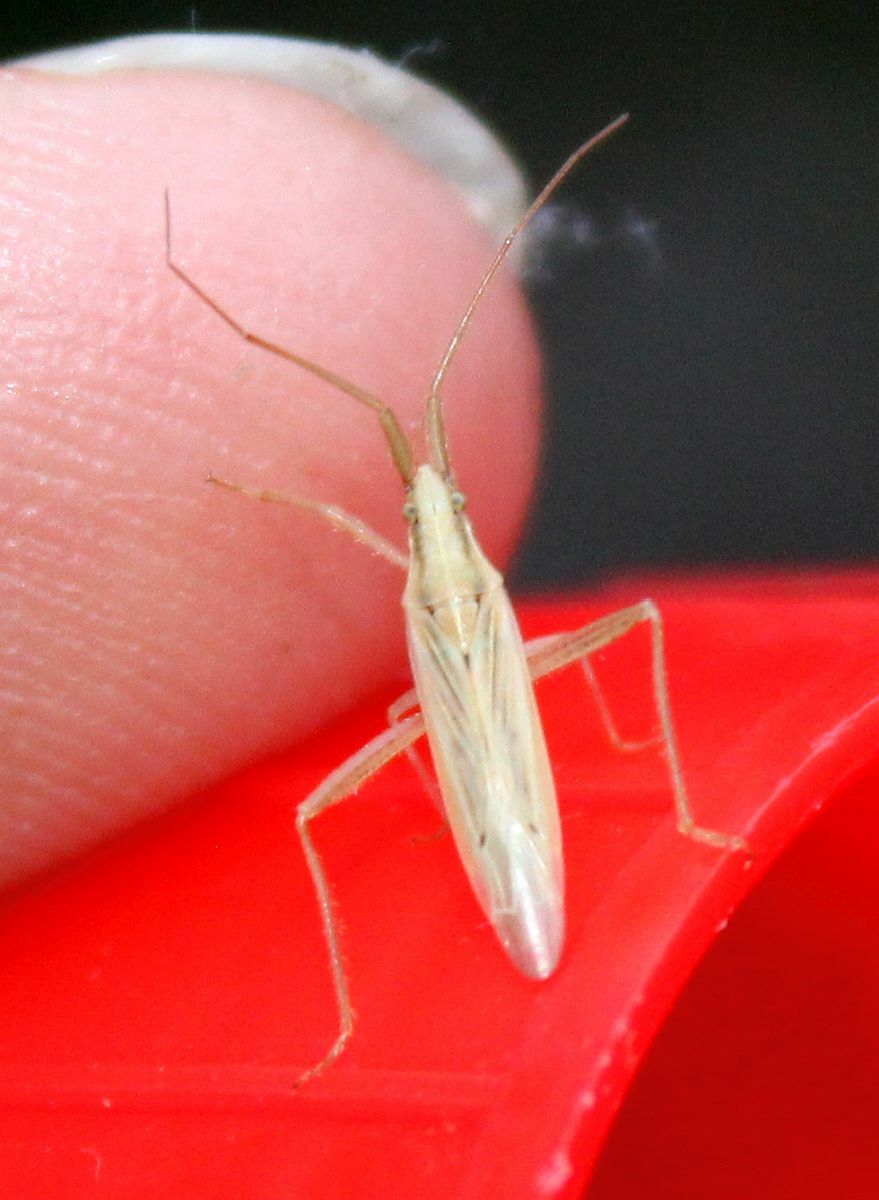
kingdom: Animalia
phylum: Arthropoda
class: Insecta
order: Hemiptera
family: Miridae
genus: Stenodema
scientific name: Stenodema laevigata
